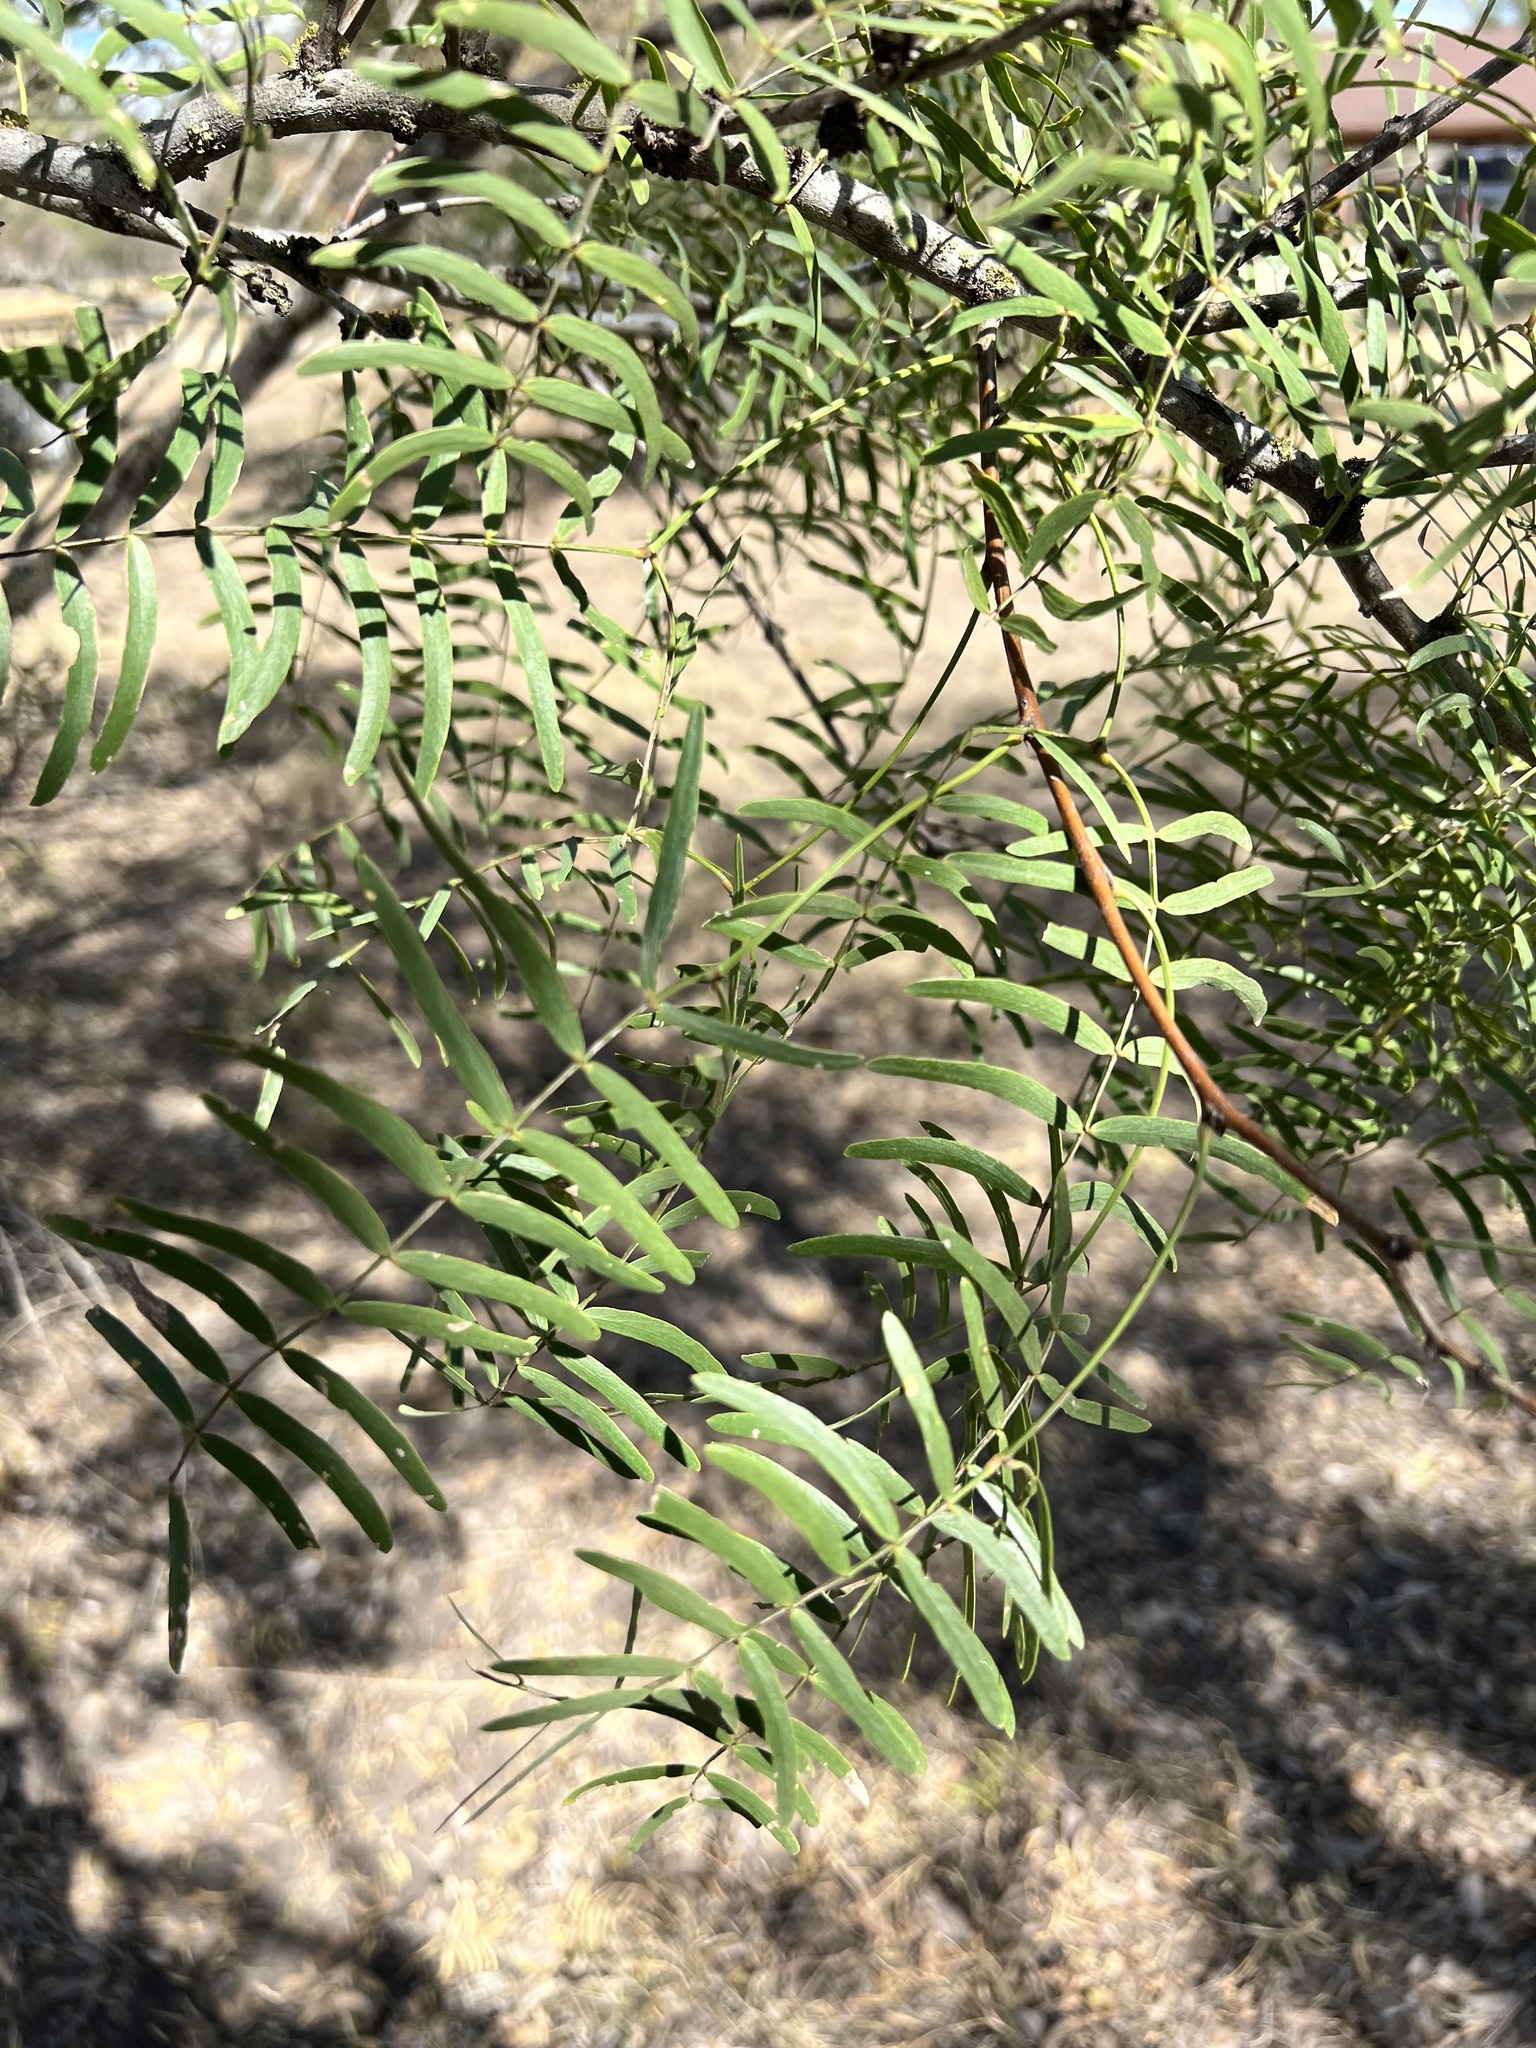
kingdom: Plantae
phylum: Tracheophyta
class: Magnoliopsida
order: Fabales
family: Fabaceae
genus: Prosopis
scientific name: Prosopis glandulosa
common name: Honey mesquite
